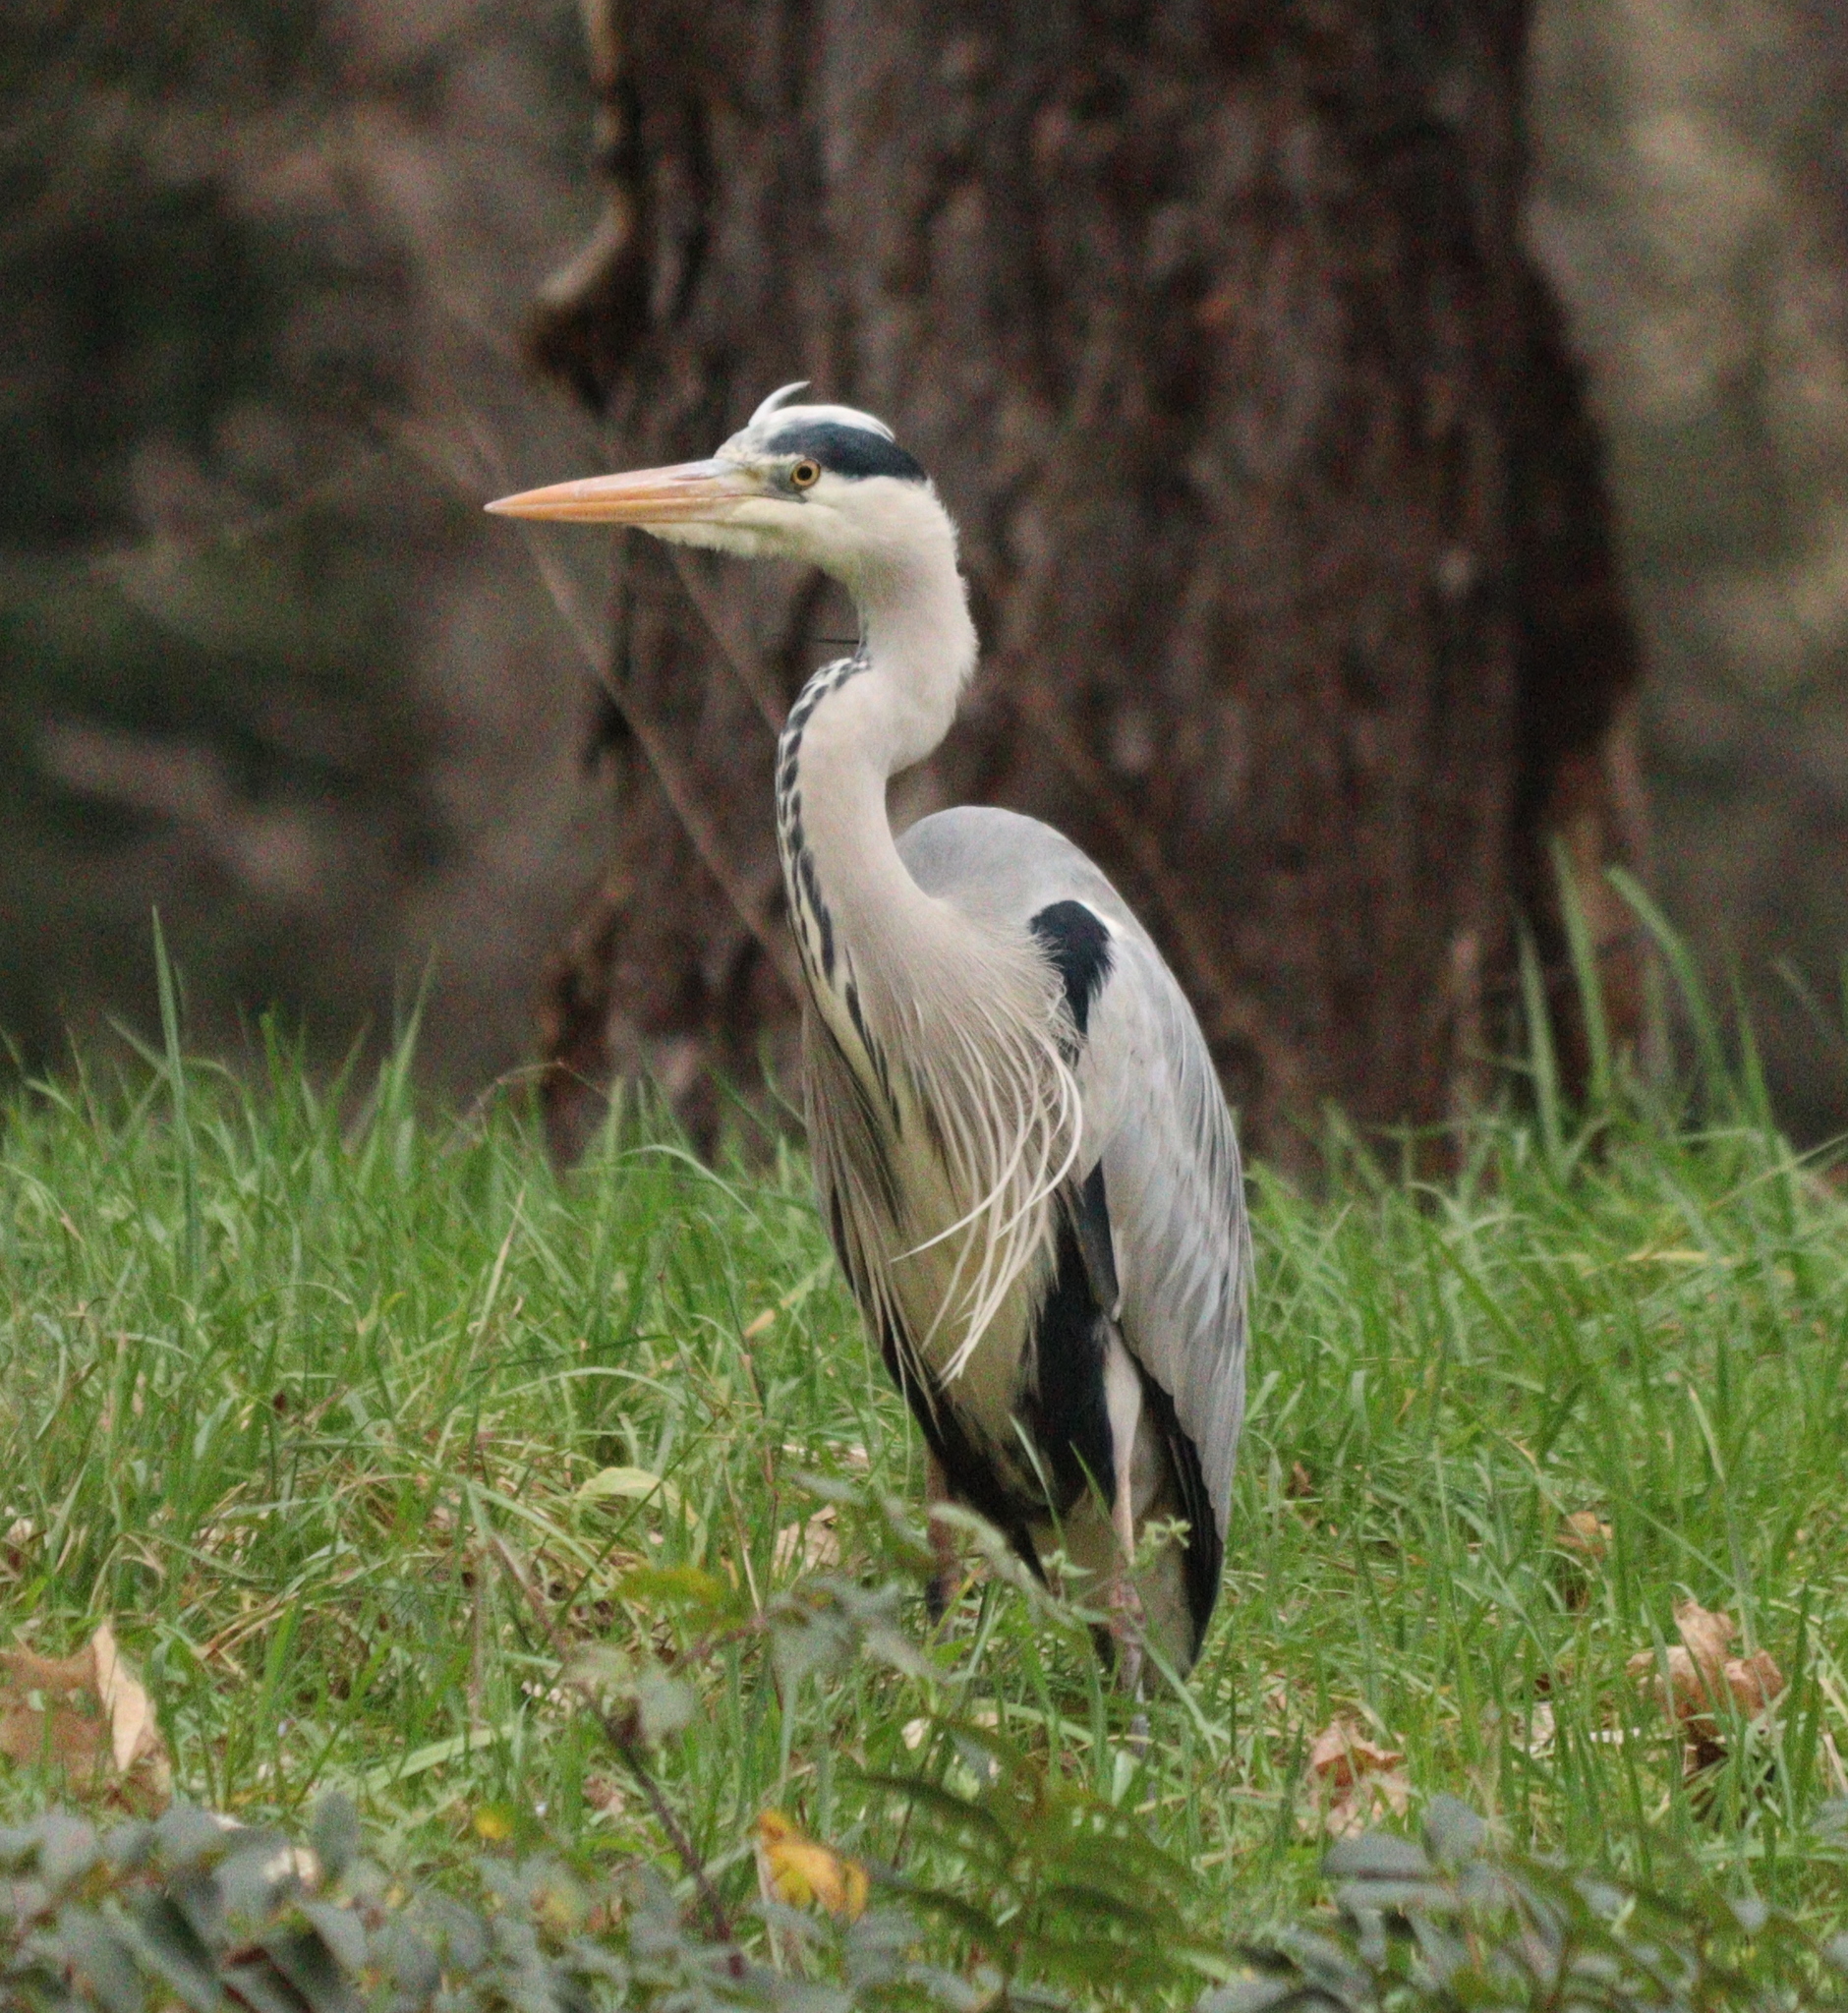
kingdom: Animalia
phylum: Chordata
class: Aves
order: Pelecaniformes
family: Ardeidae
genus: Ardea
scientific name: Ardea cinerea
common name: Grey heron
